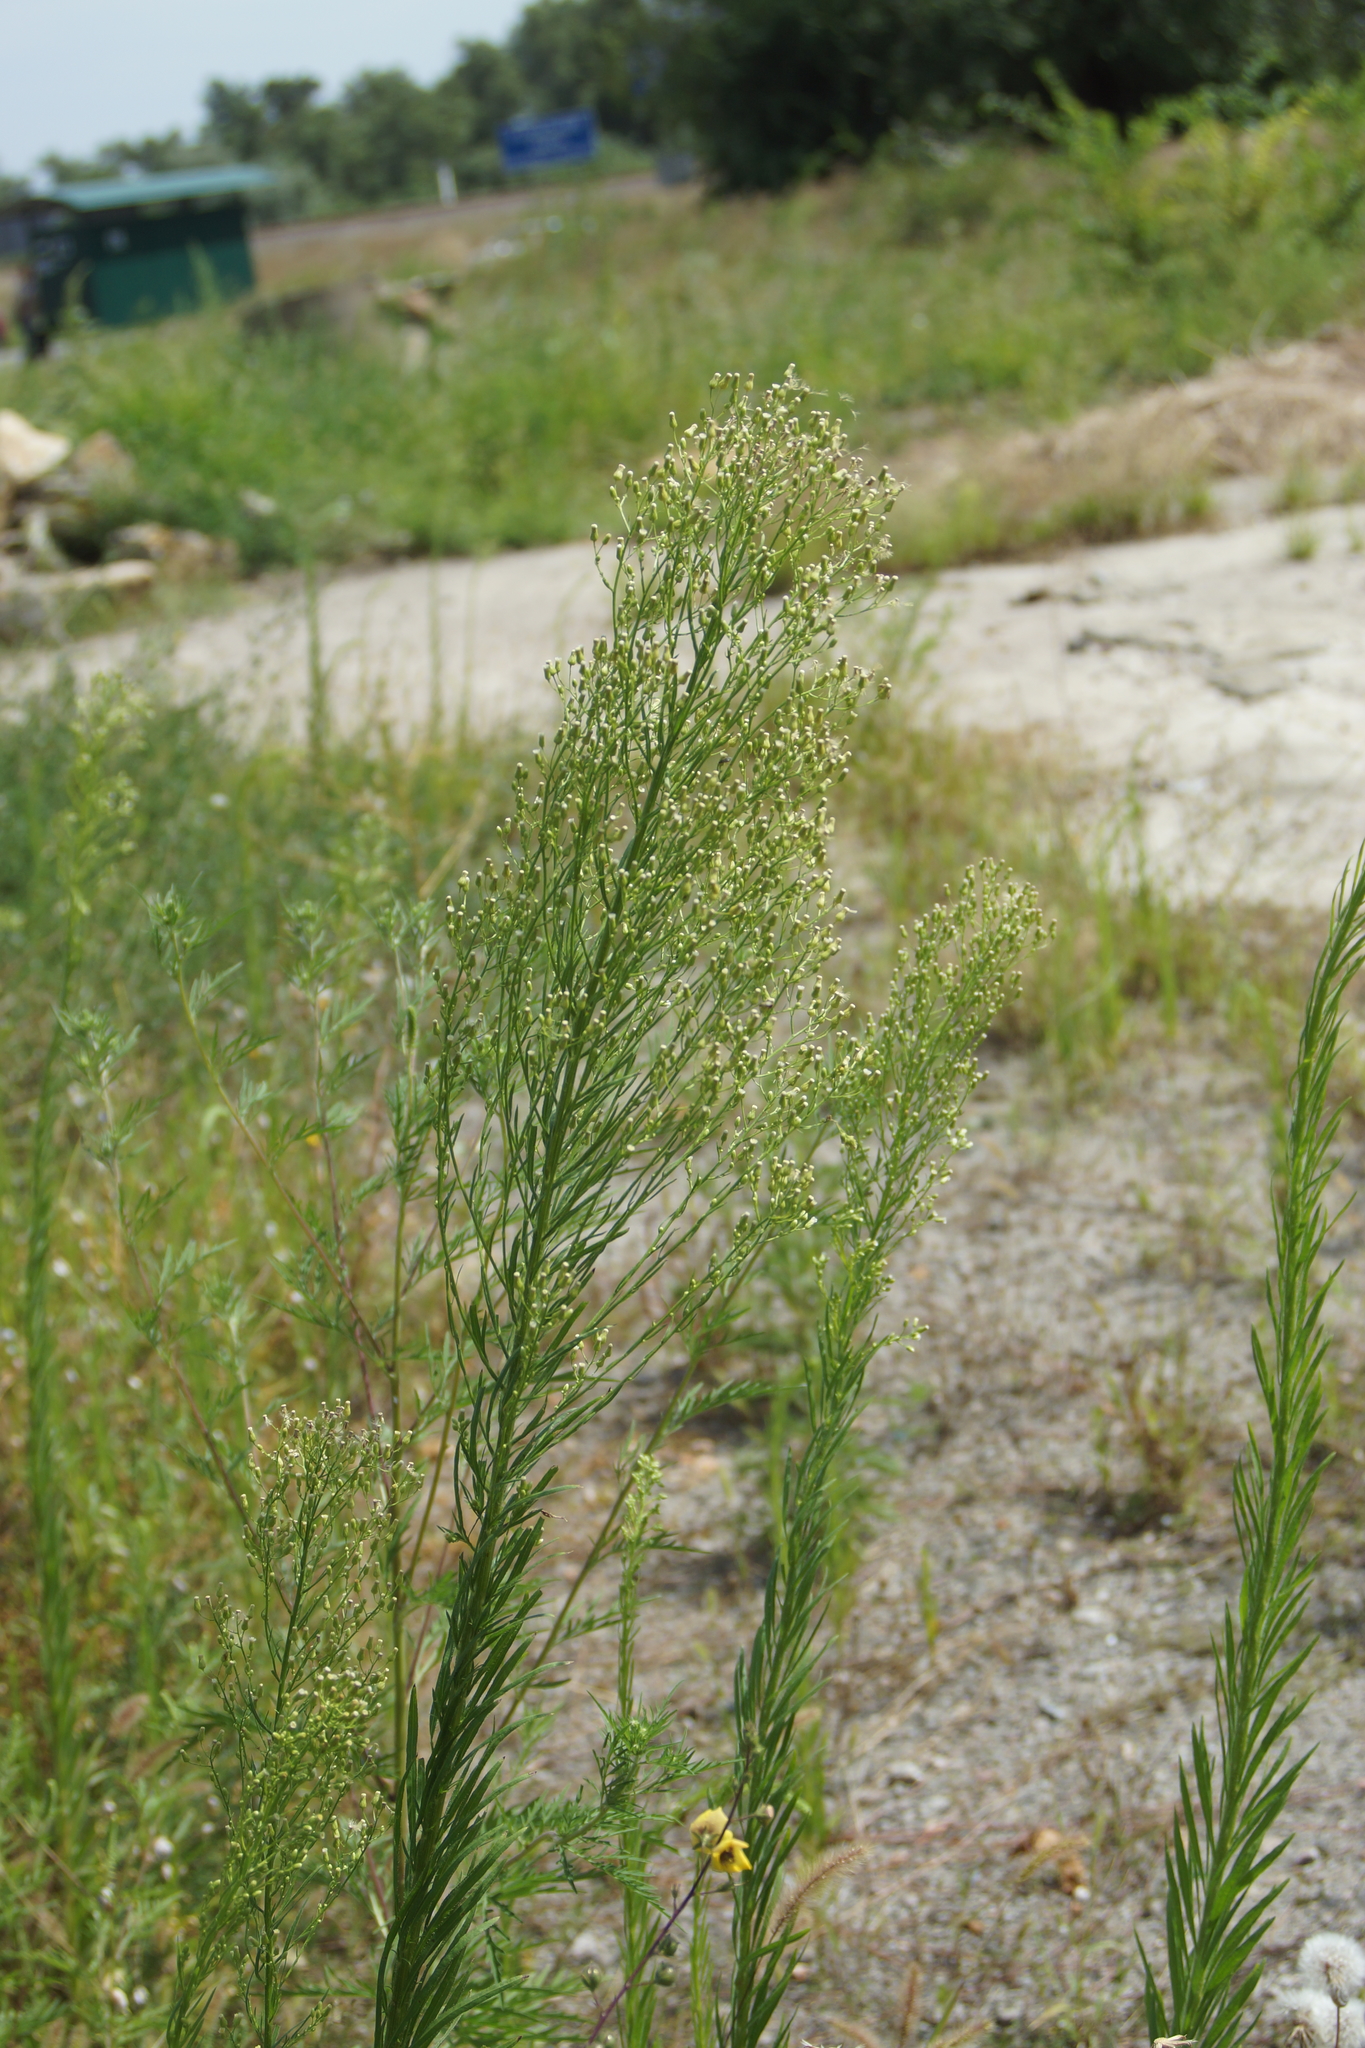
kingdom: Plantae
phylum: Tracheophyta
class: Magnoliopsida
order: Asterales
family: Asteraceae
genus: Erigeron
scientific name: Erigeron canadensis
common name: Canadian fleabane
